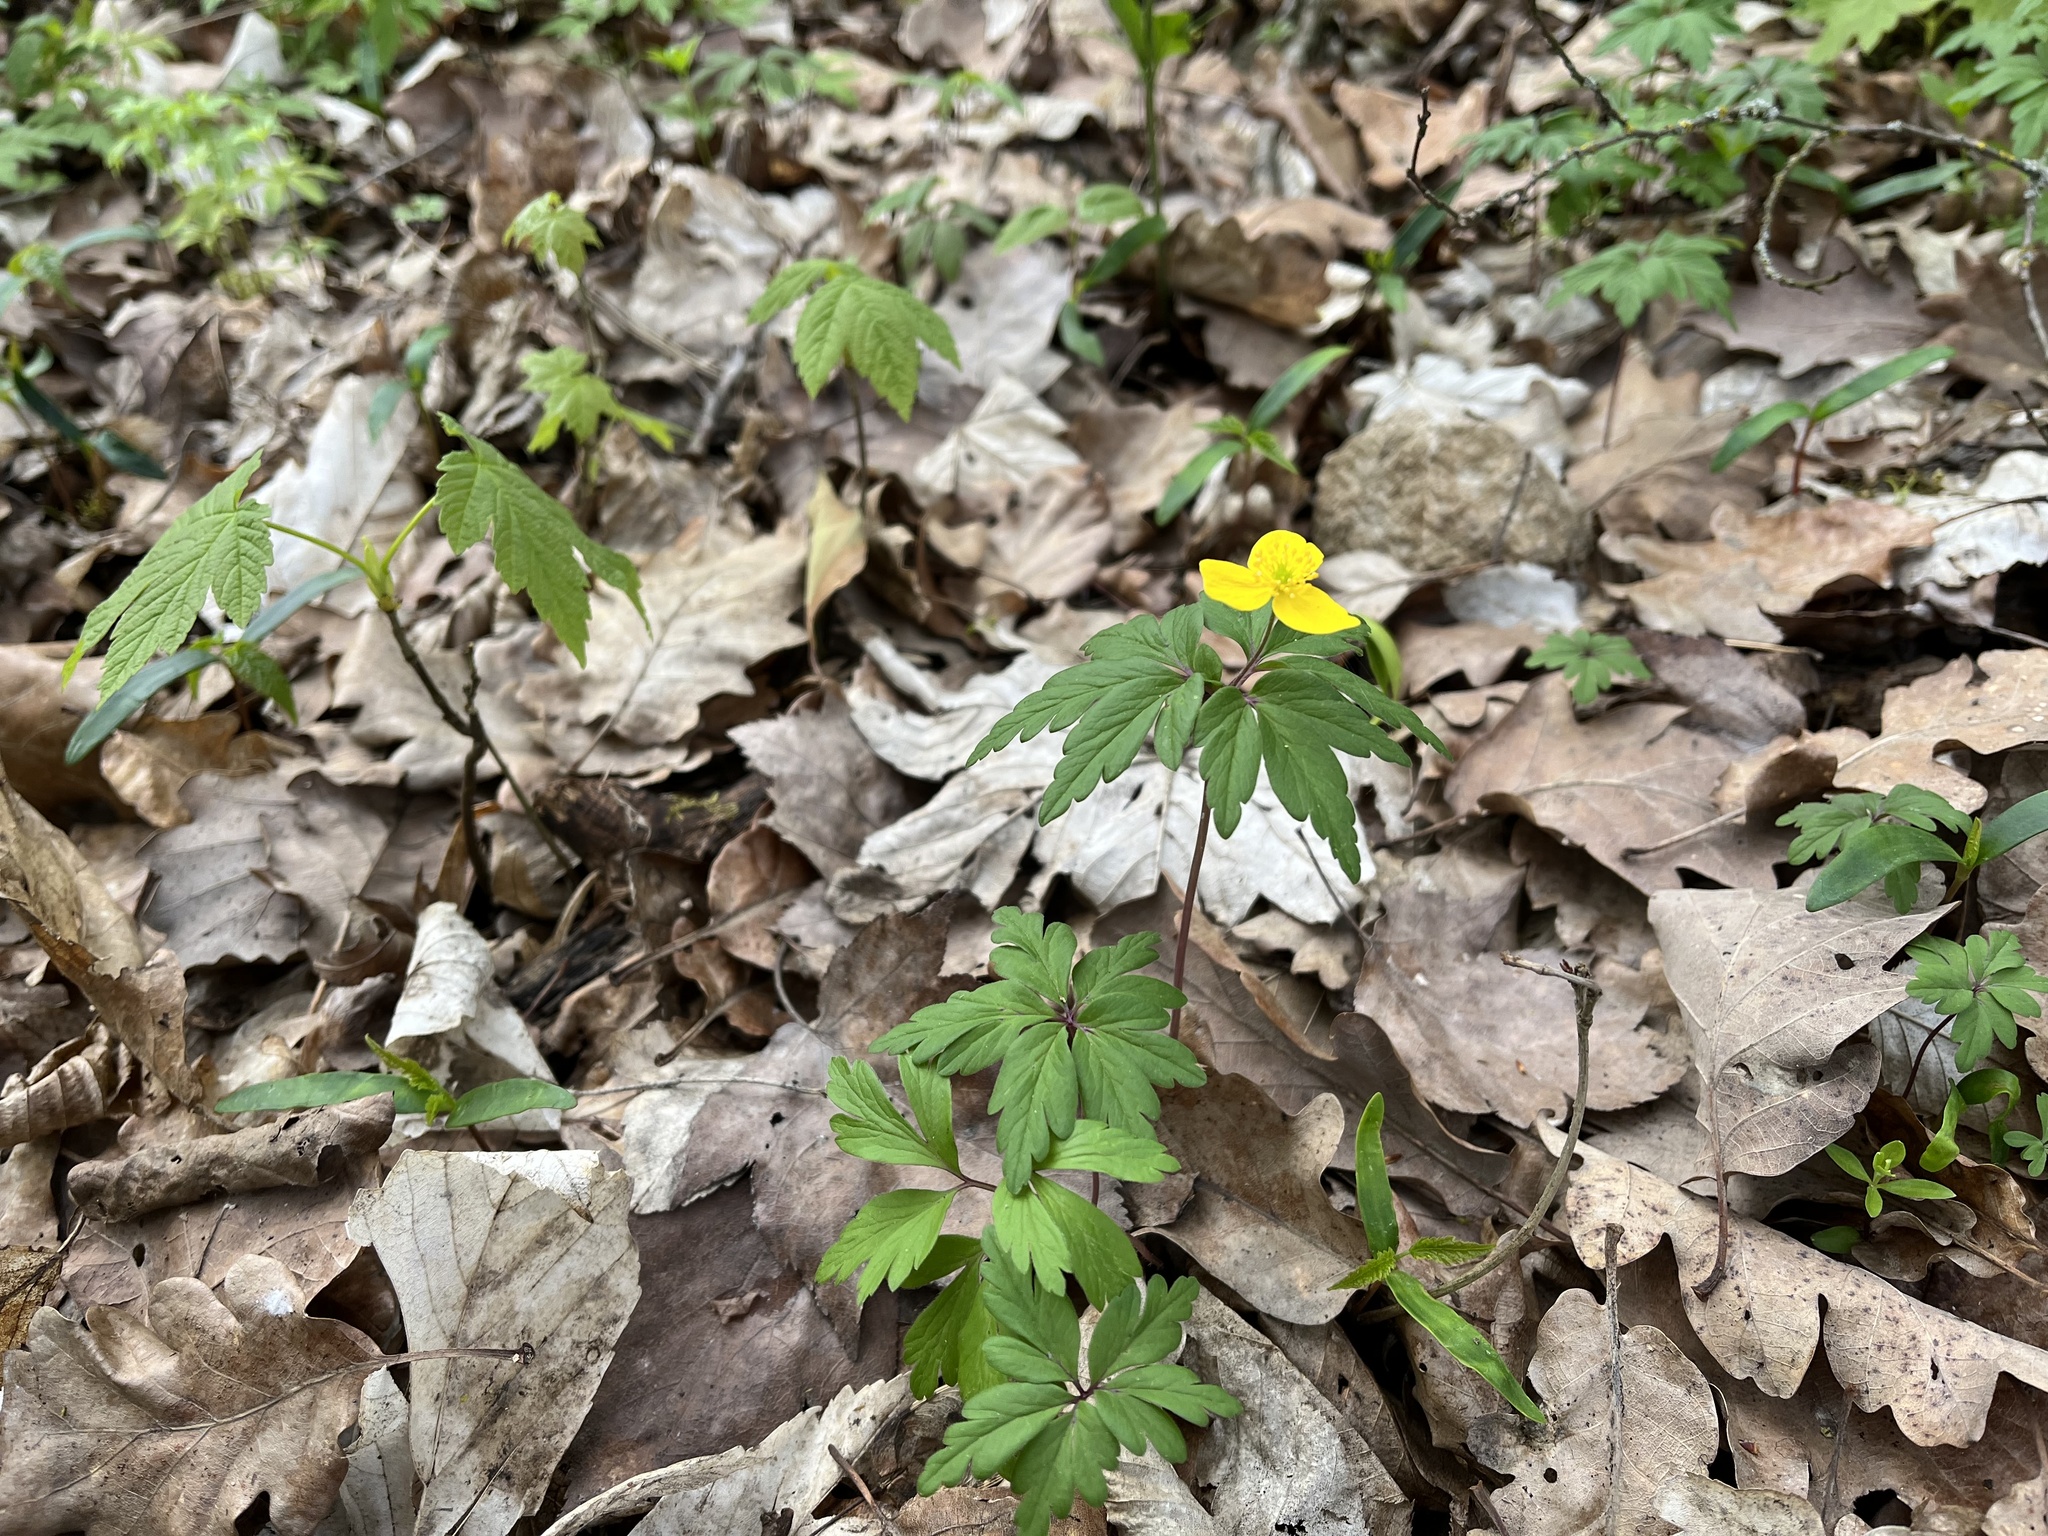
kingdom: Plantae
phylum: Tracheophyta
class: Magnoliopsida
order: Ranunculales
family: Ranunculaceae
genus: Anemone
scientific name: Anemone ranunculoides
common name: Yellow anemone
